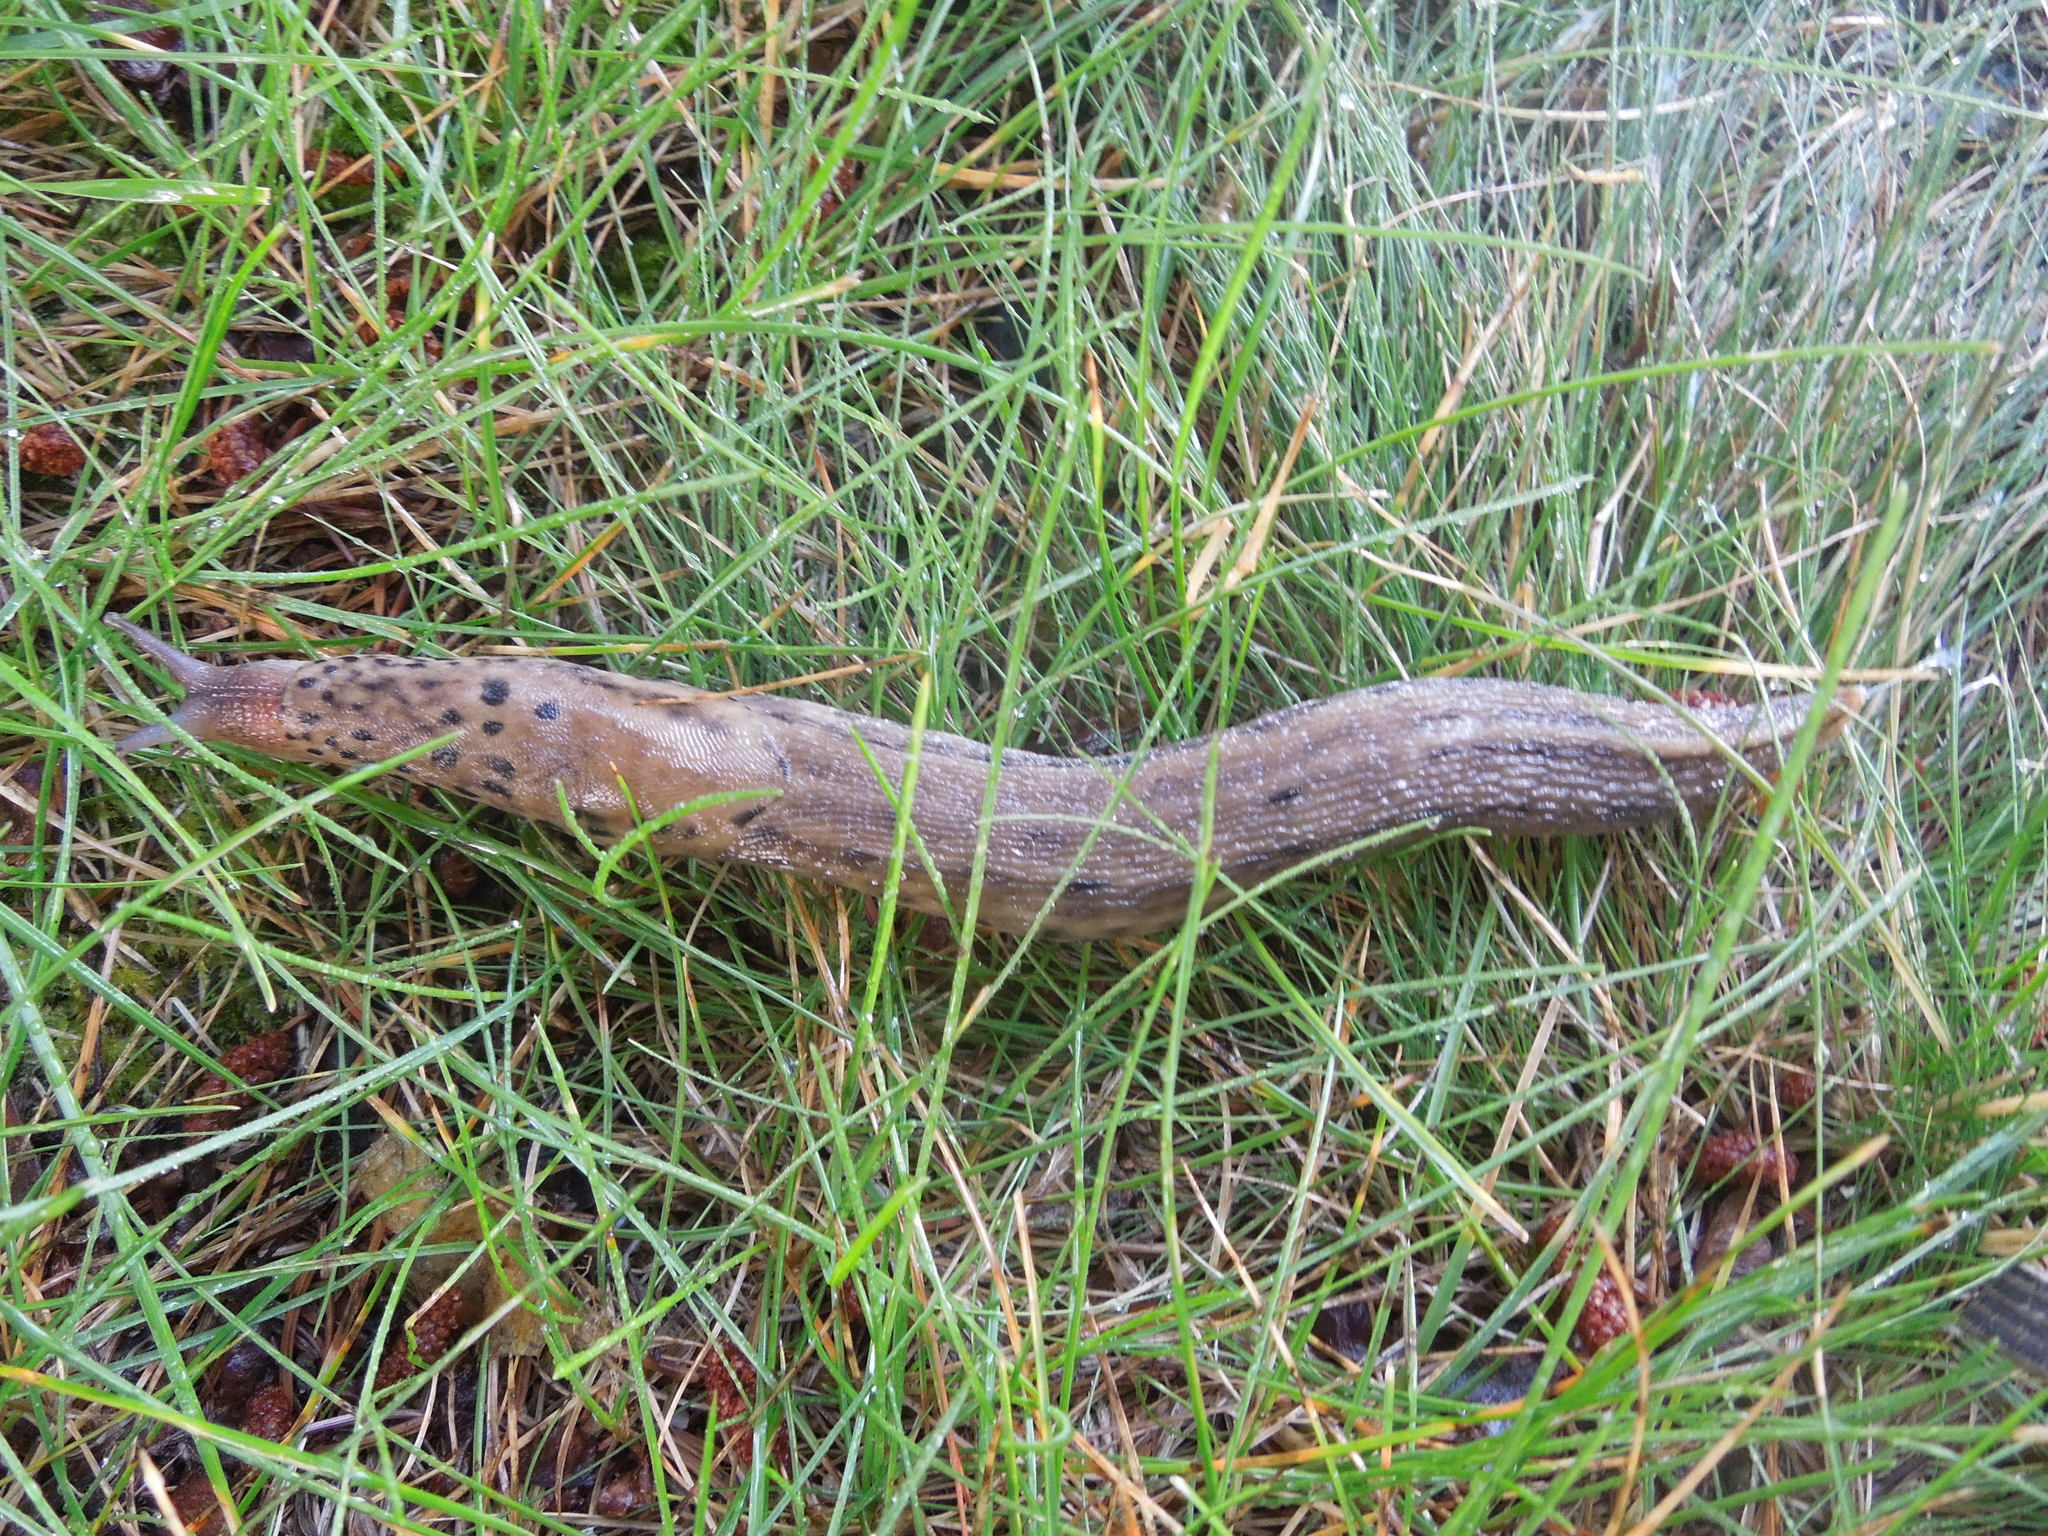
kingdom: Animalia
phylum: Mollusca
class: Gastropoda
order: Stylommatophora
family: Limacidae
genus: Limax
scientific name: Limax maximus
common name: Great grey slug
